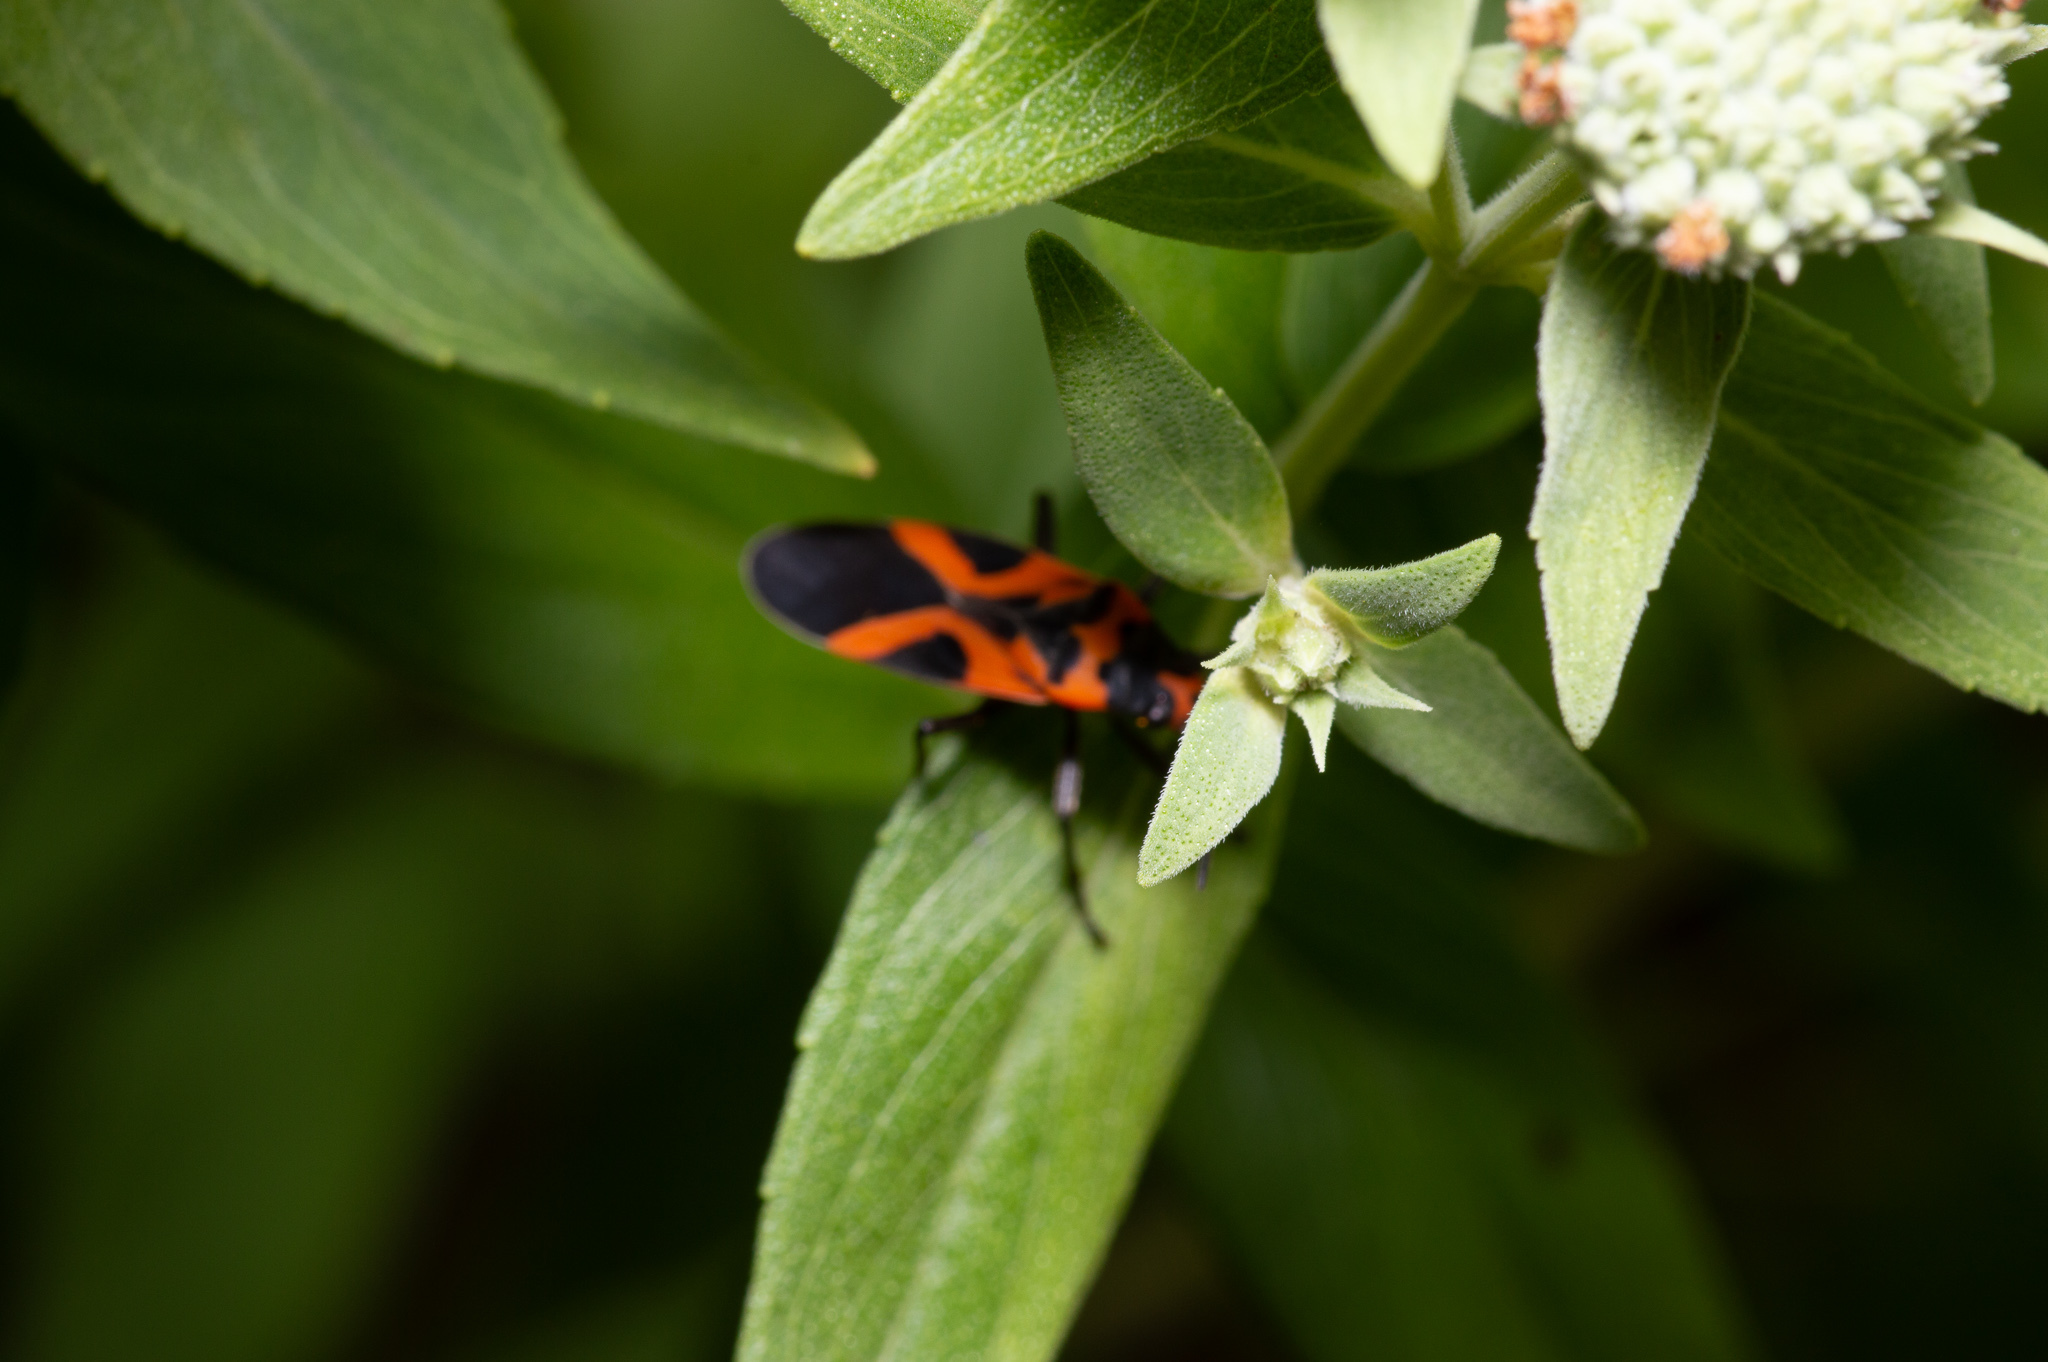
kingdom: Animalia
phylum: Arthropoda
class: Insecta
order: Hemiptera
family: Lygaeidae
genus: Lygaeus
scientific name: Lygaeus turcicus
